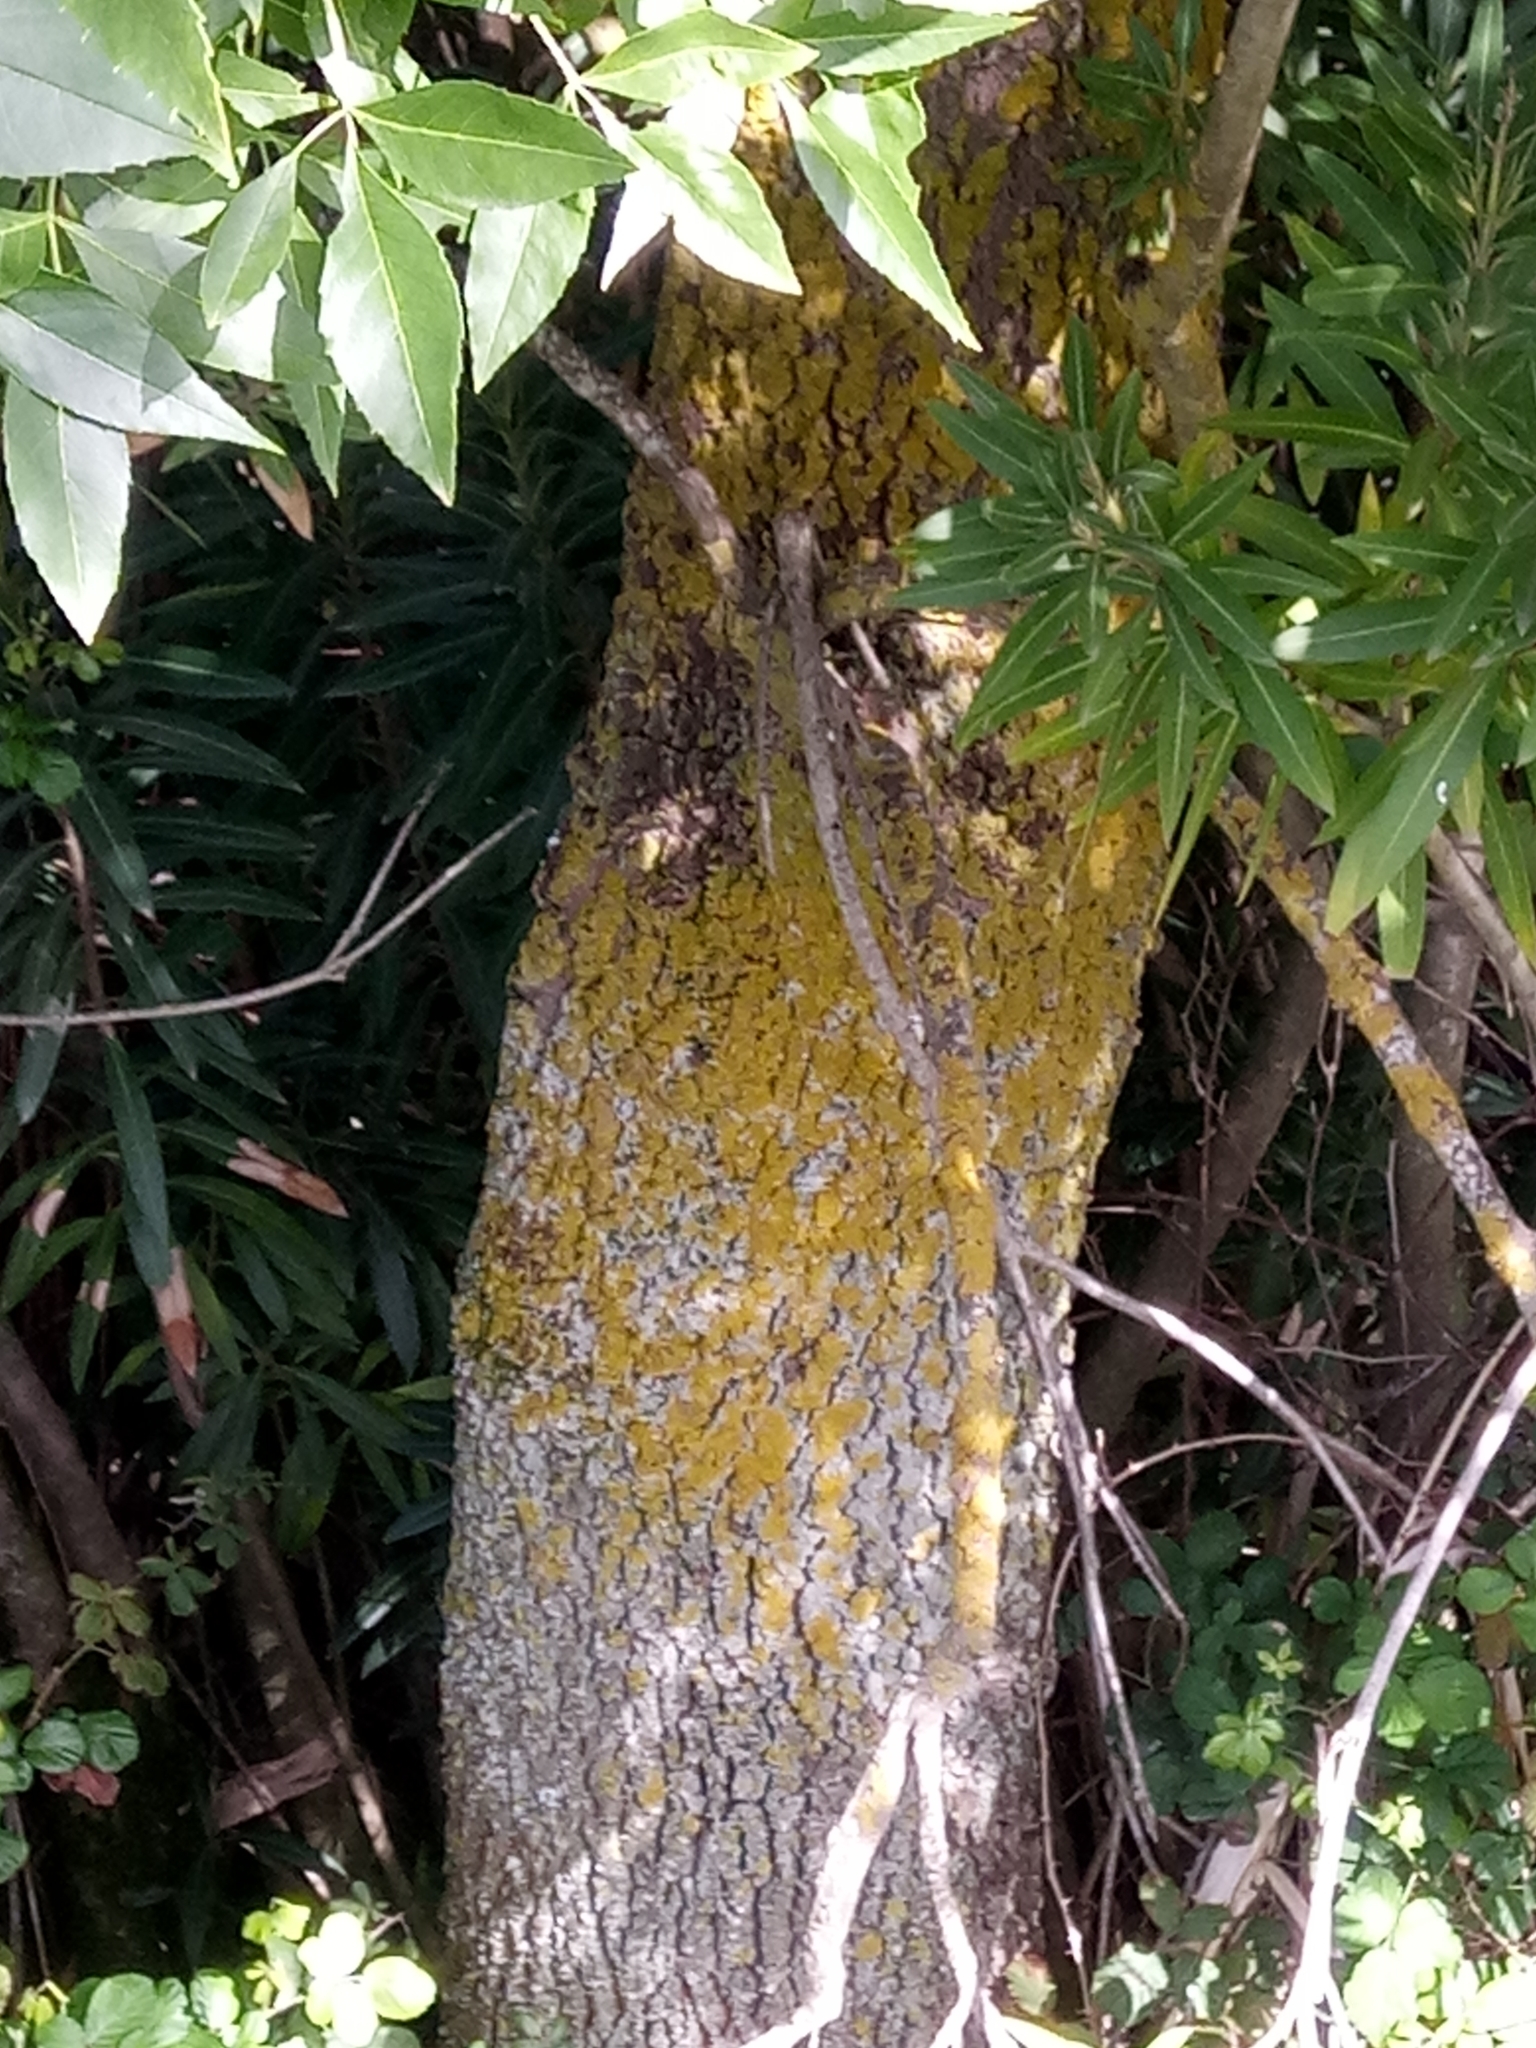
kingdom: Plantae
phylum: Tracheophyta
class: Magnoliopsida
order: Lamiales
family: Oleaceae
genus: Fraxinus
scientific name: Fraxinus angustifolia
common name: Narrow-leafed ash
